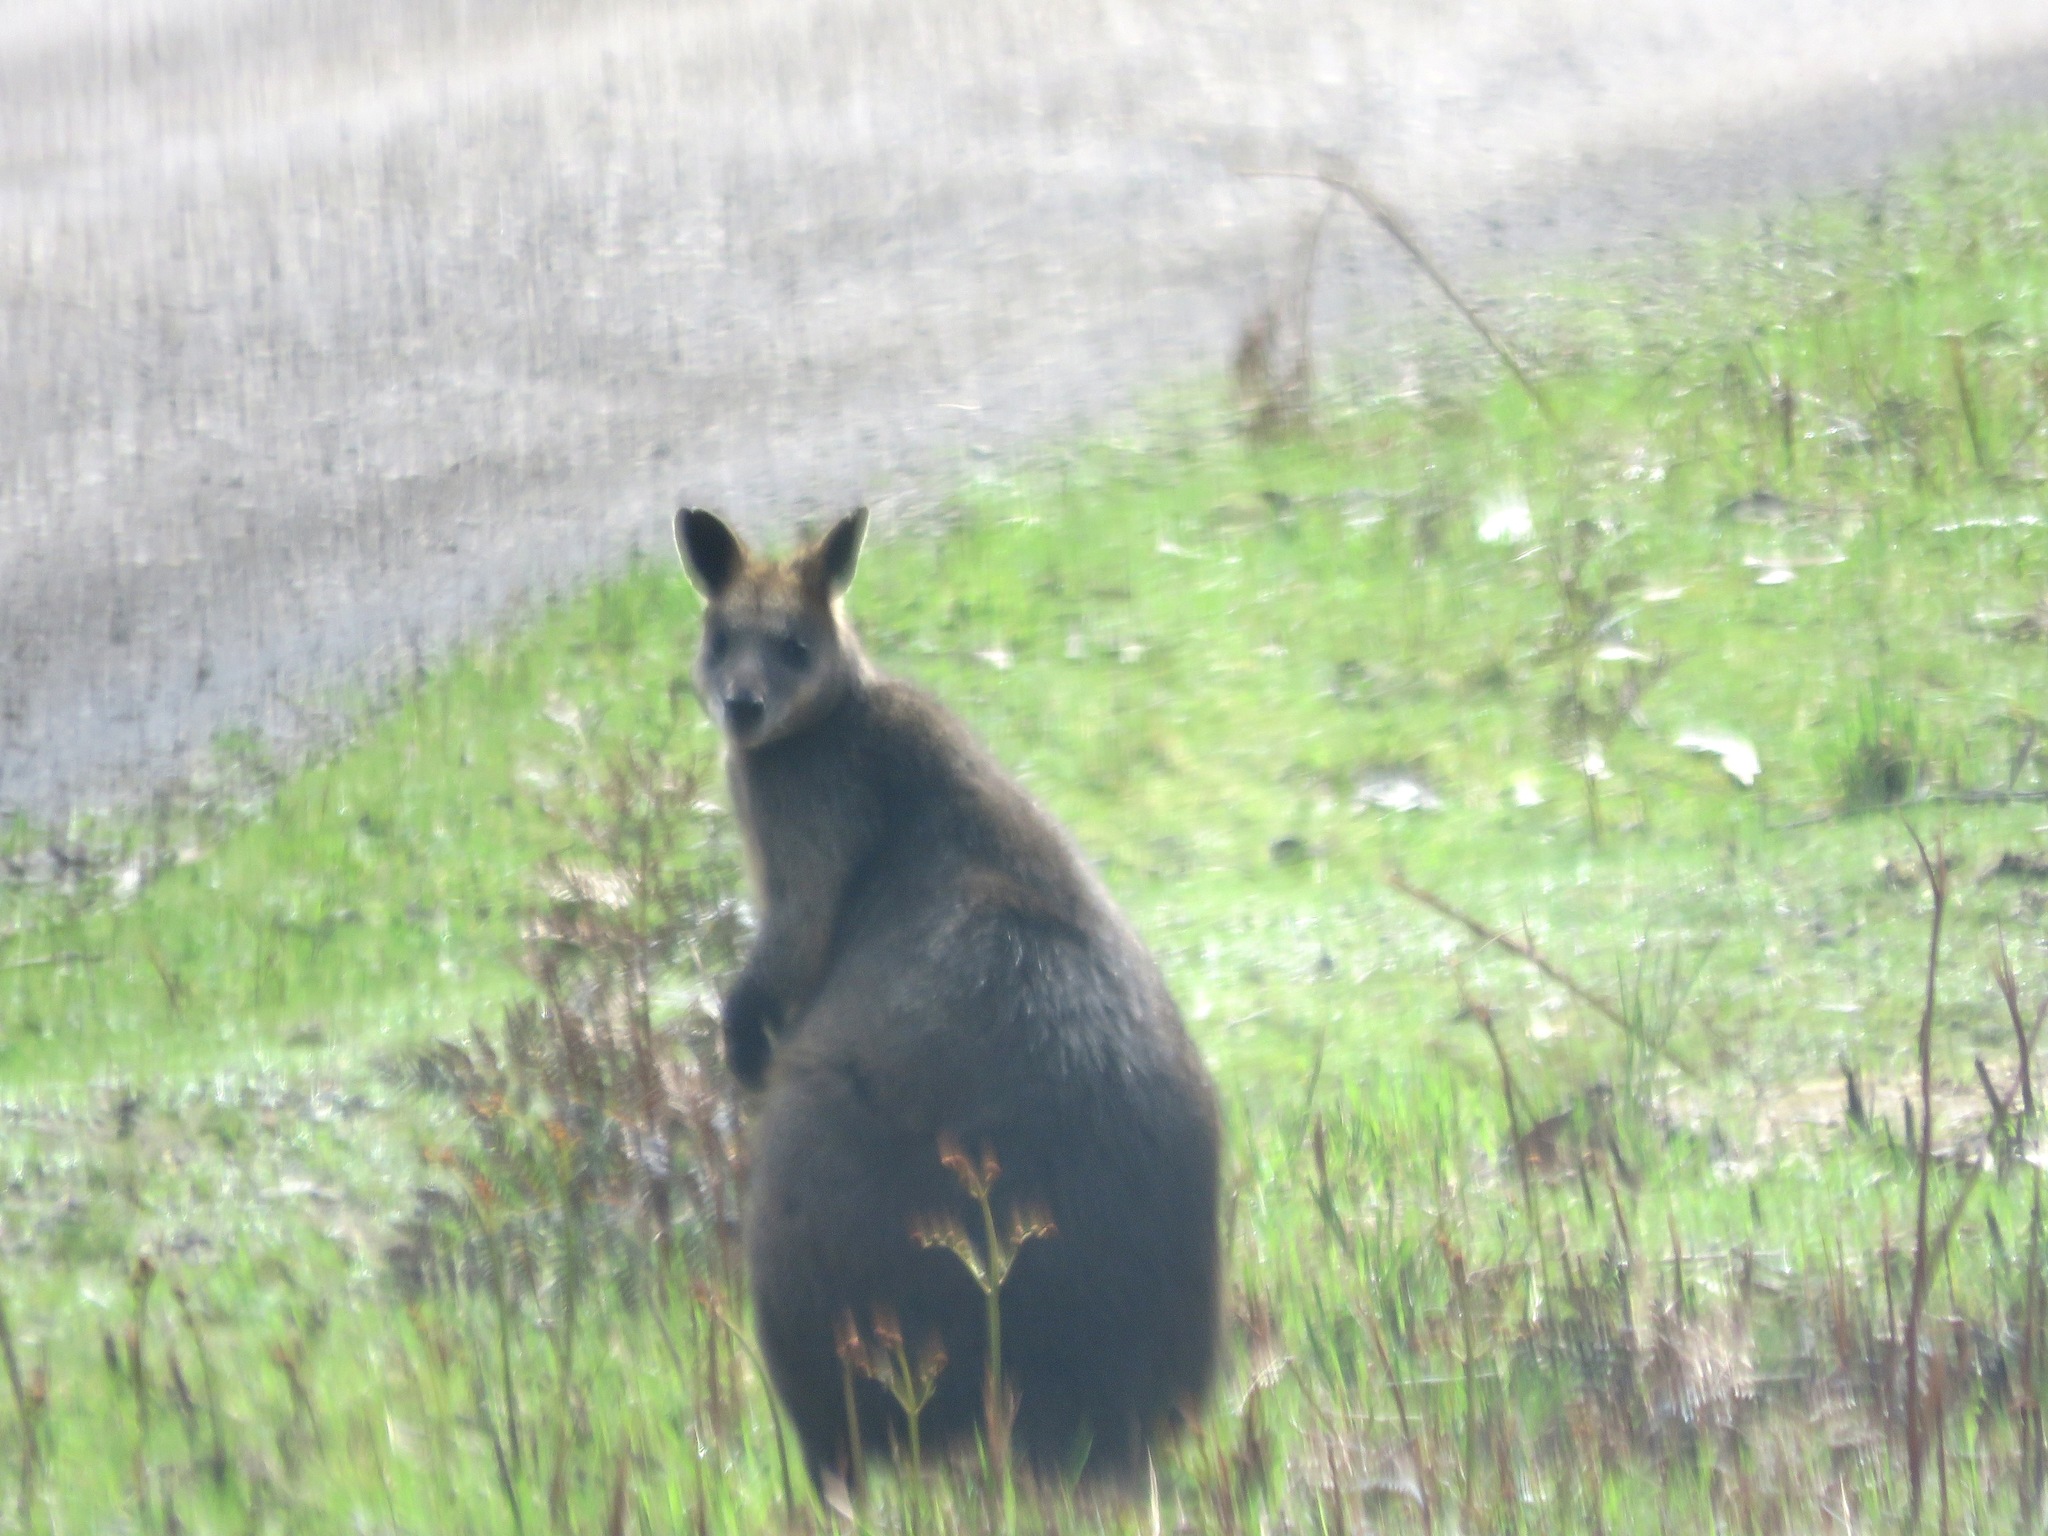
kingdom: Animalia
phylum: Chordata
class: Mammalia
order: Diprotodontia
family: Macropodidae
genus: Wallabia
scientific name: Wallabia bicolor
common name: Swamp wallaby
